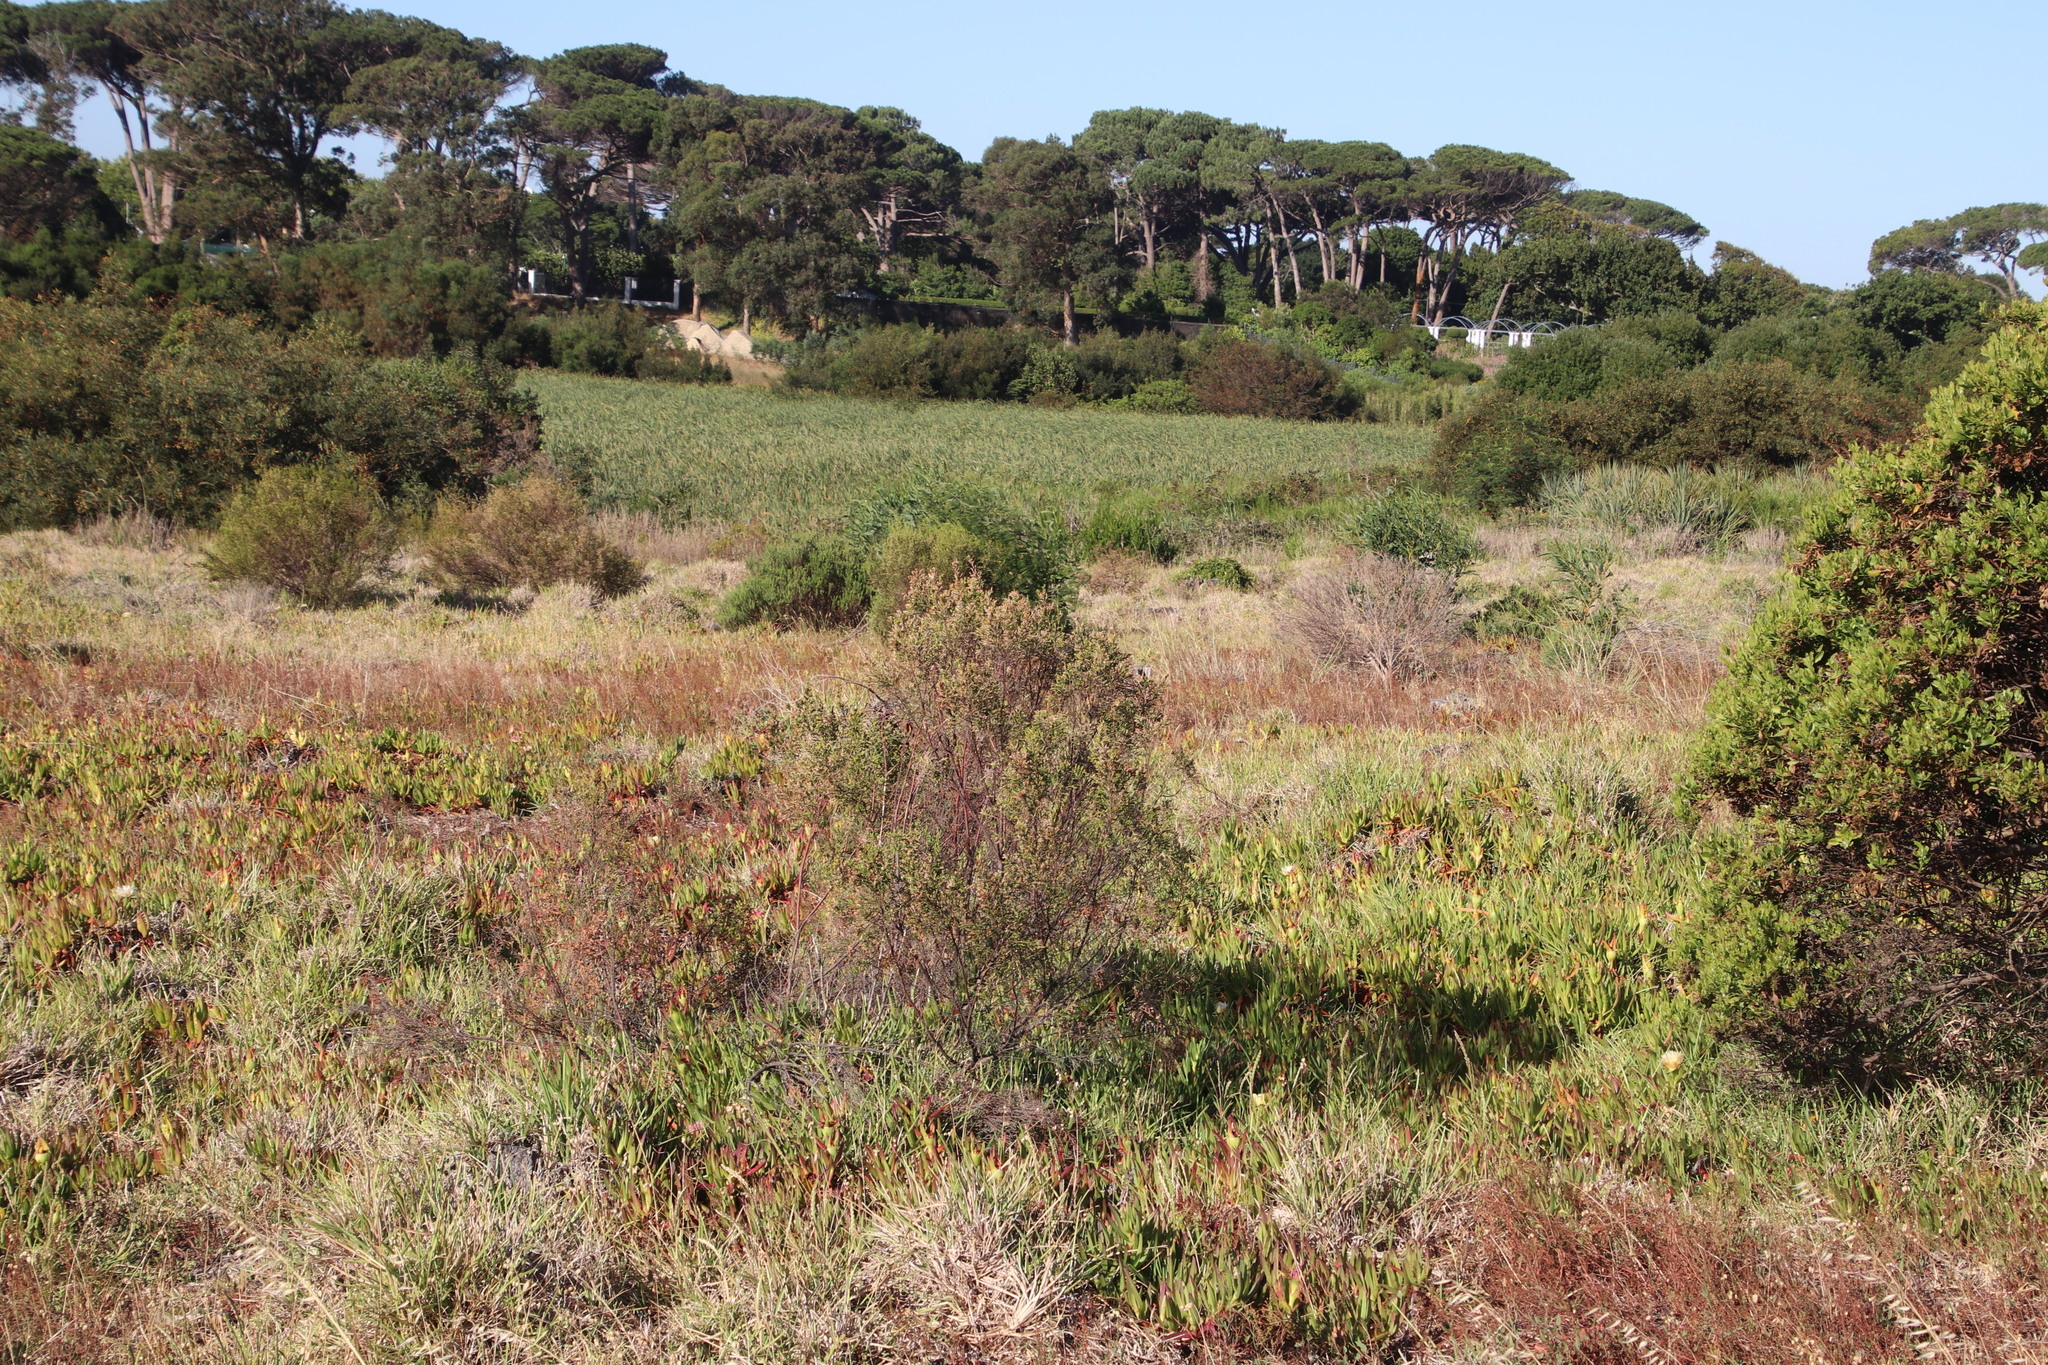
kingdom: Plantae
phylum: Tracheophyta
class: Magnoliopsida
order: Malvales
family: Thymelaeaceae
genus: Passerina
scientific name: Passerina corymbosa
